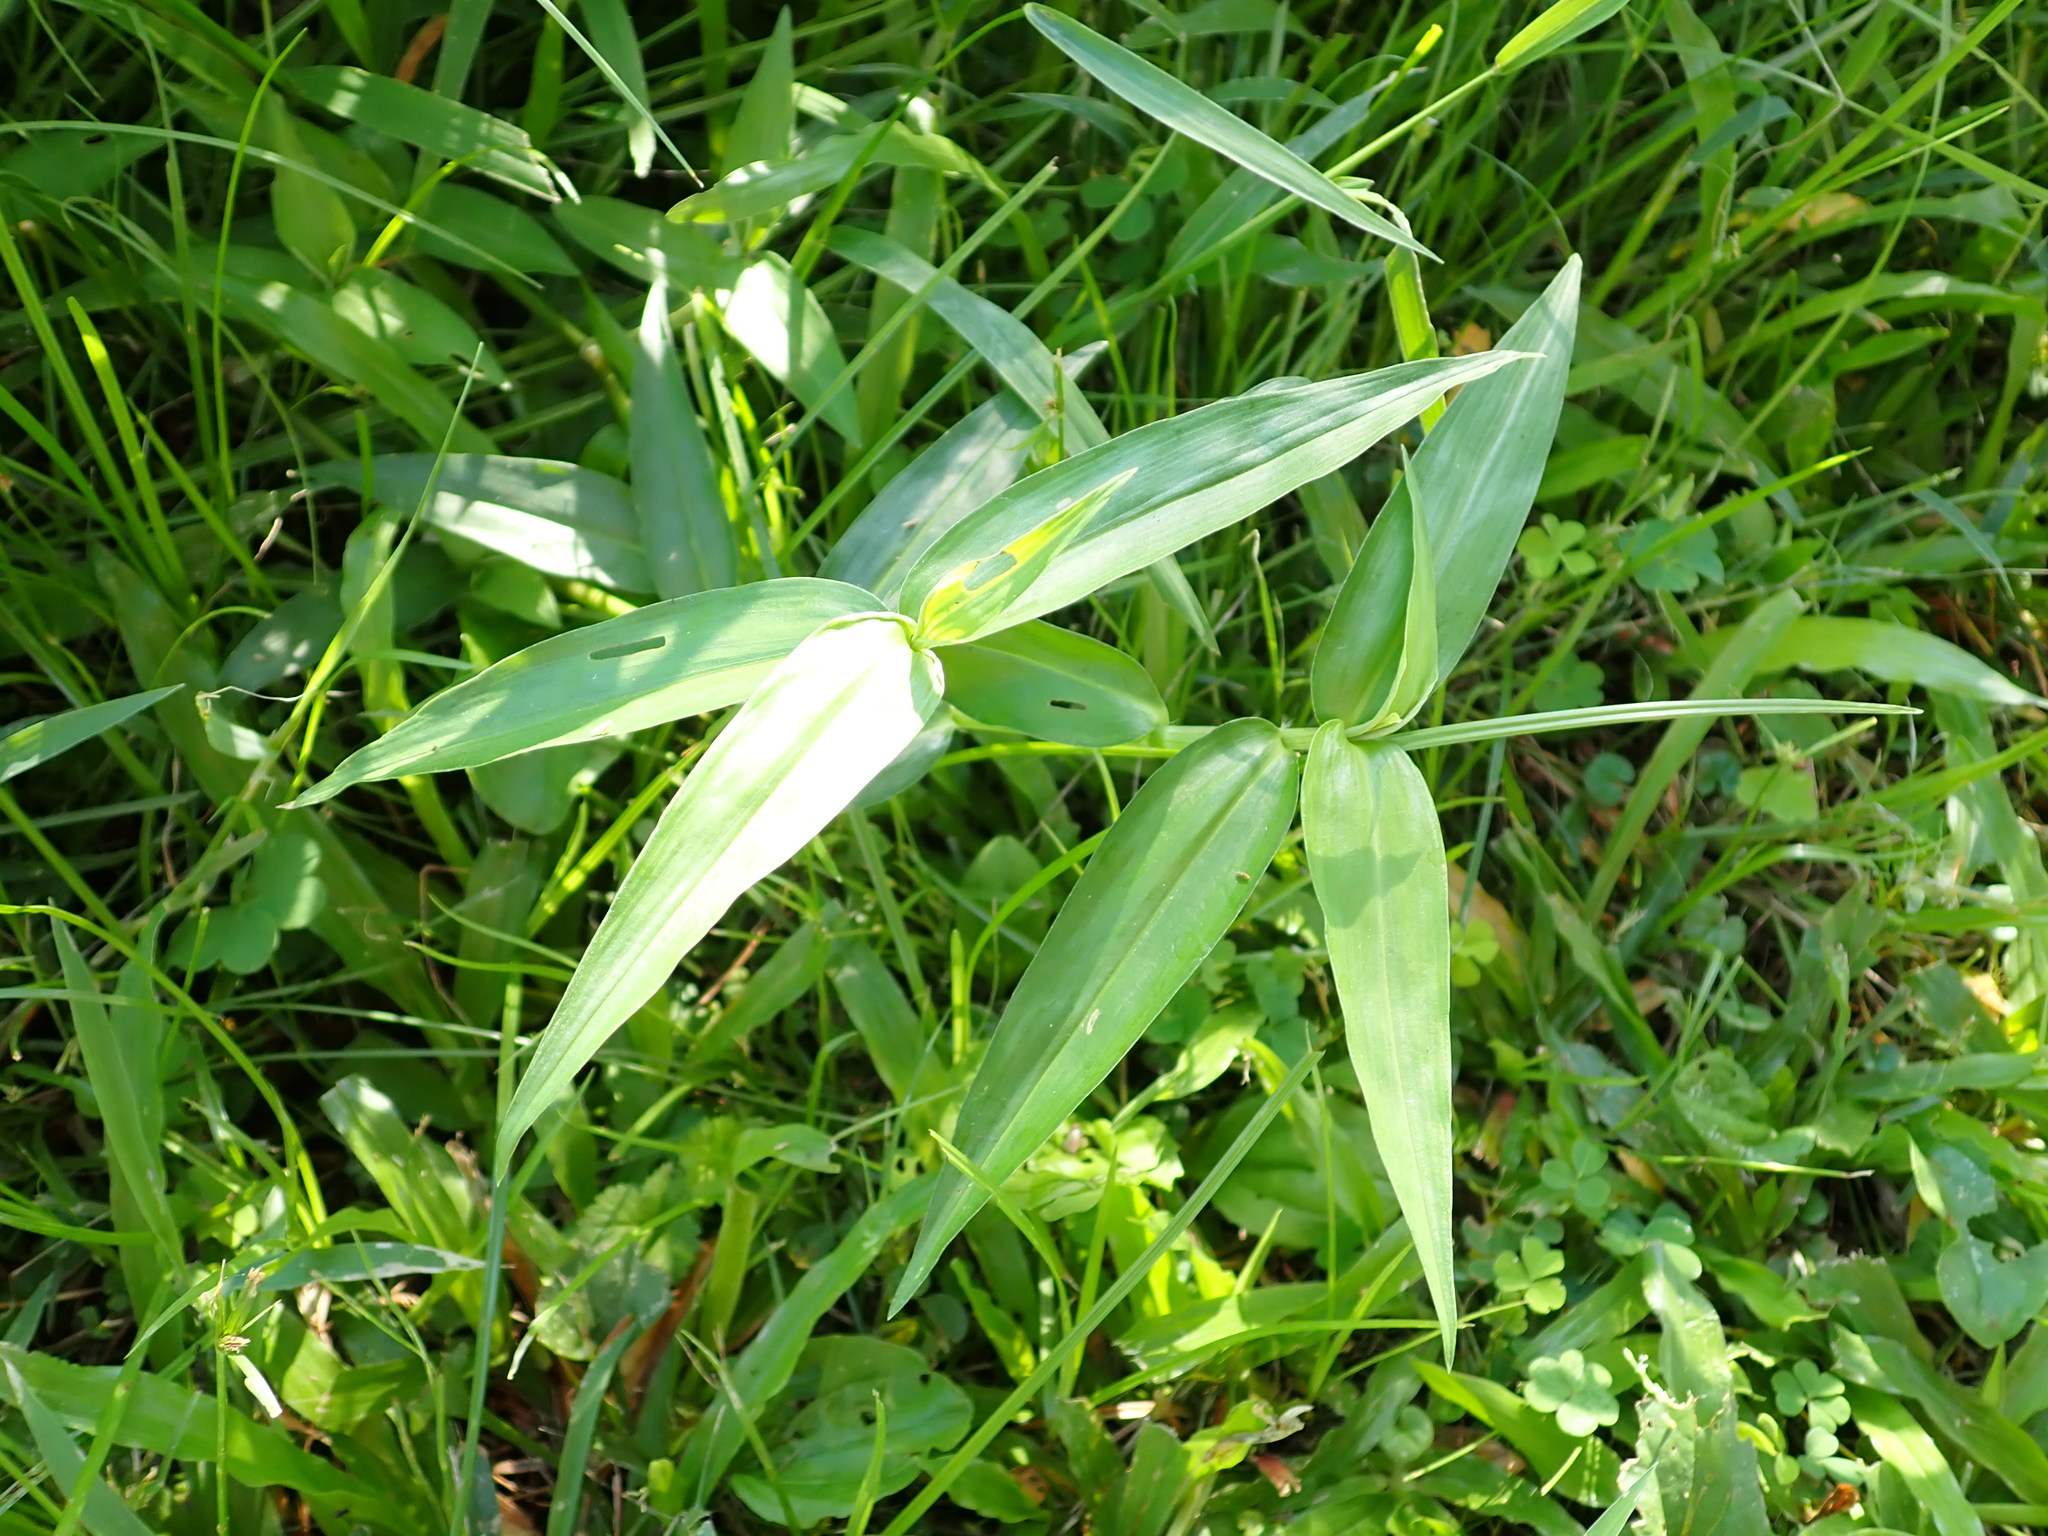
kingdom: Plantae
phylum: Tracheophyta
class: Liliopsida
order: Commelinales
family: Commelinaceae
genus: Commelina
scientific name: Commelina diffusa
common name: Climbing dayflower
